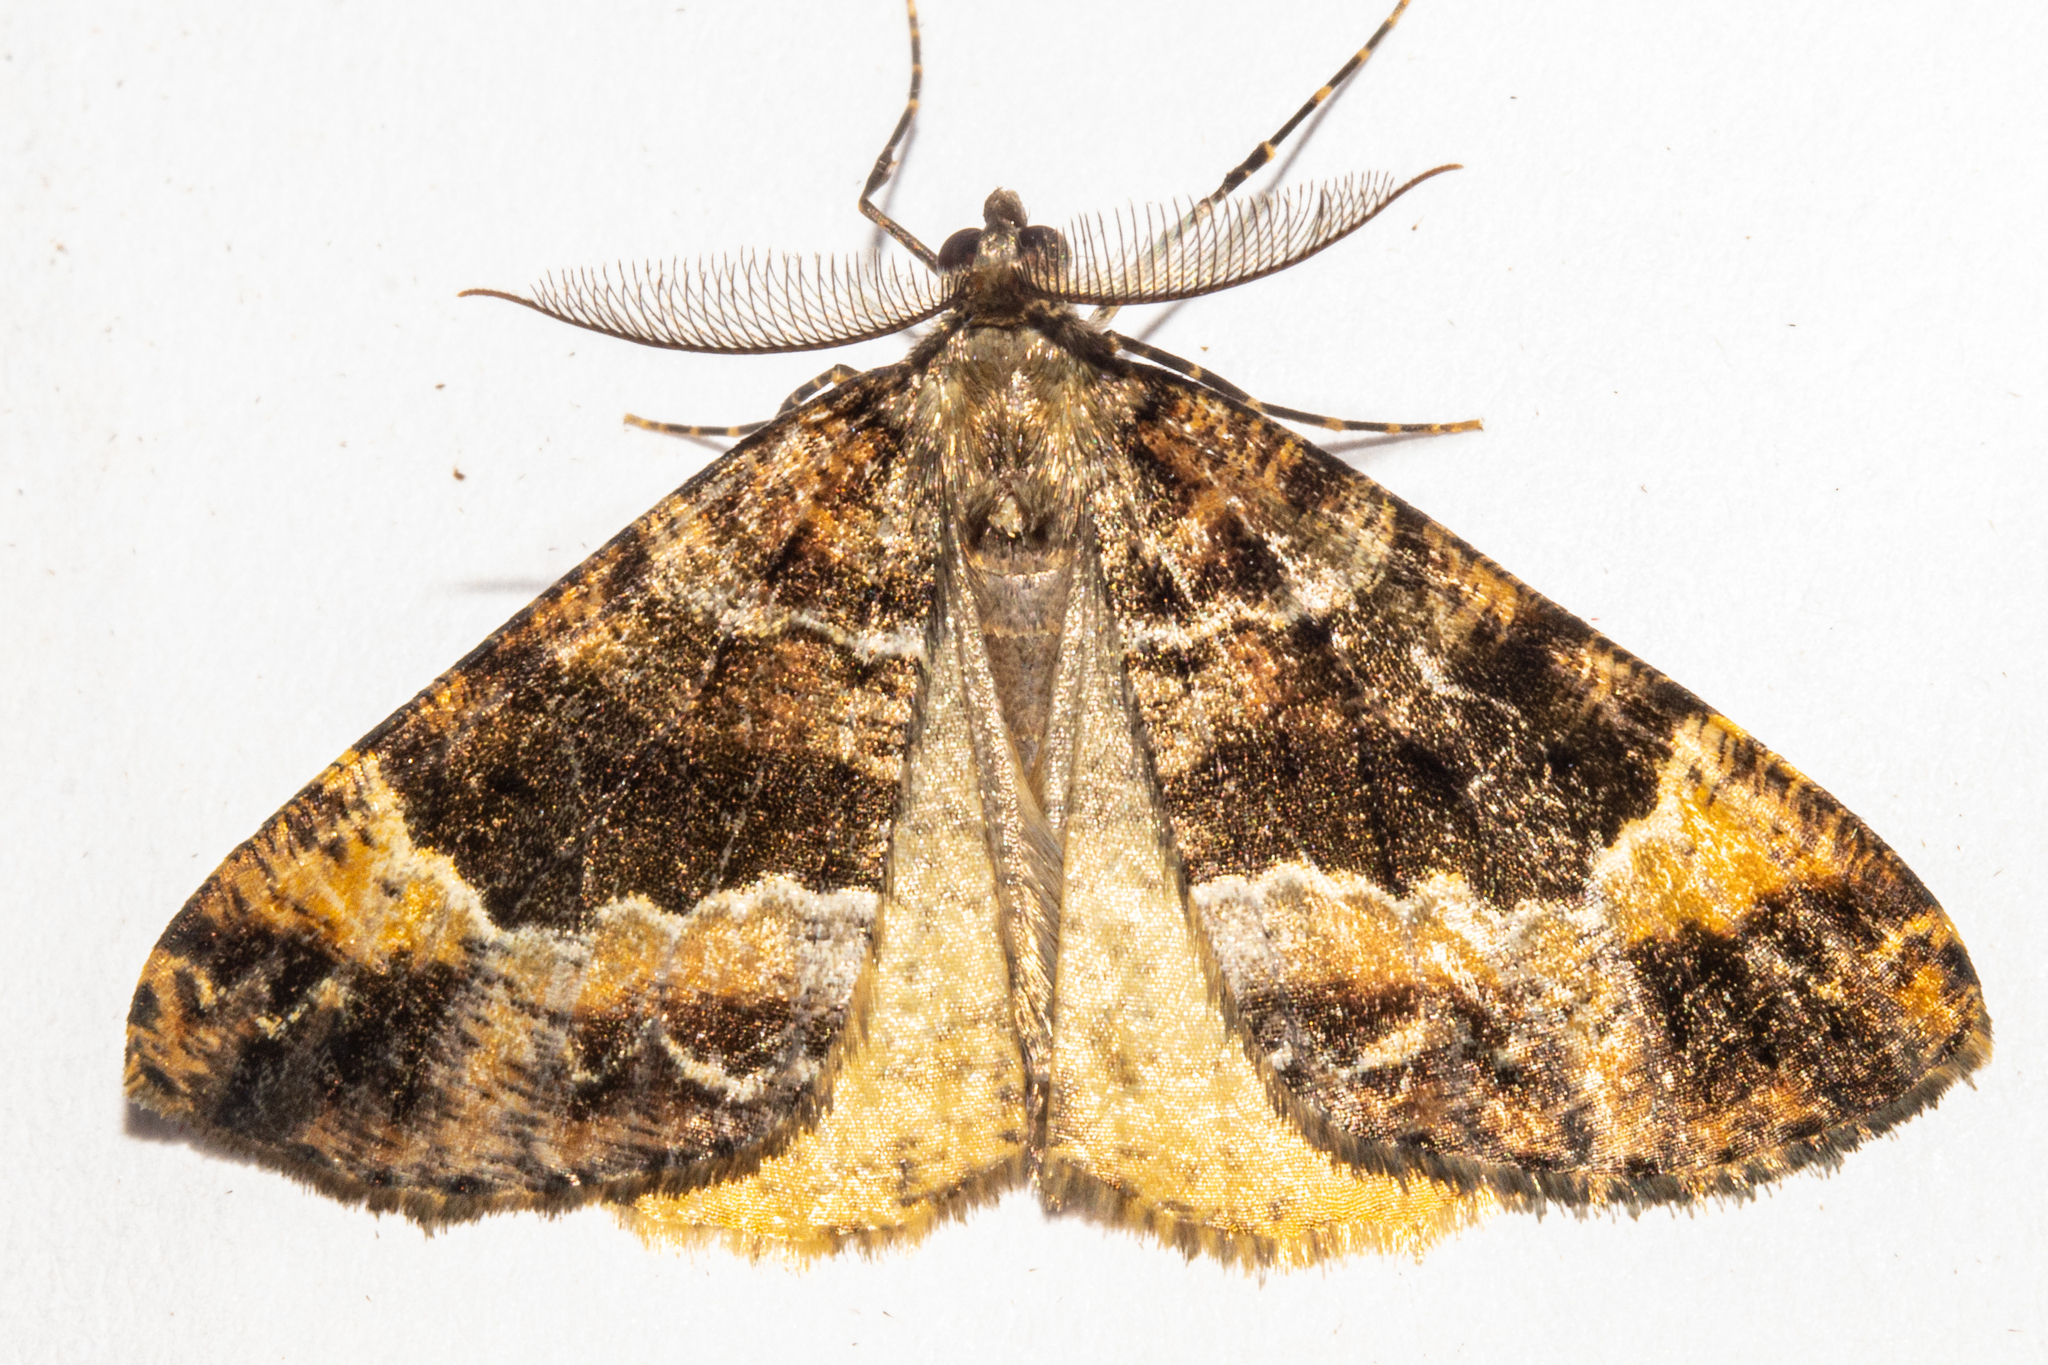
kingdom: Animalia
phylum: Arthropoda
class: Insecta
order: Lepidoptera
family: Geometridae
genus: Pseudocoremia
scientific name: Pseudocoremia productata
